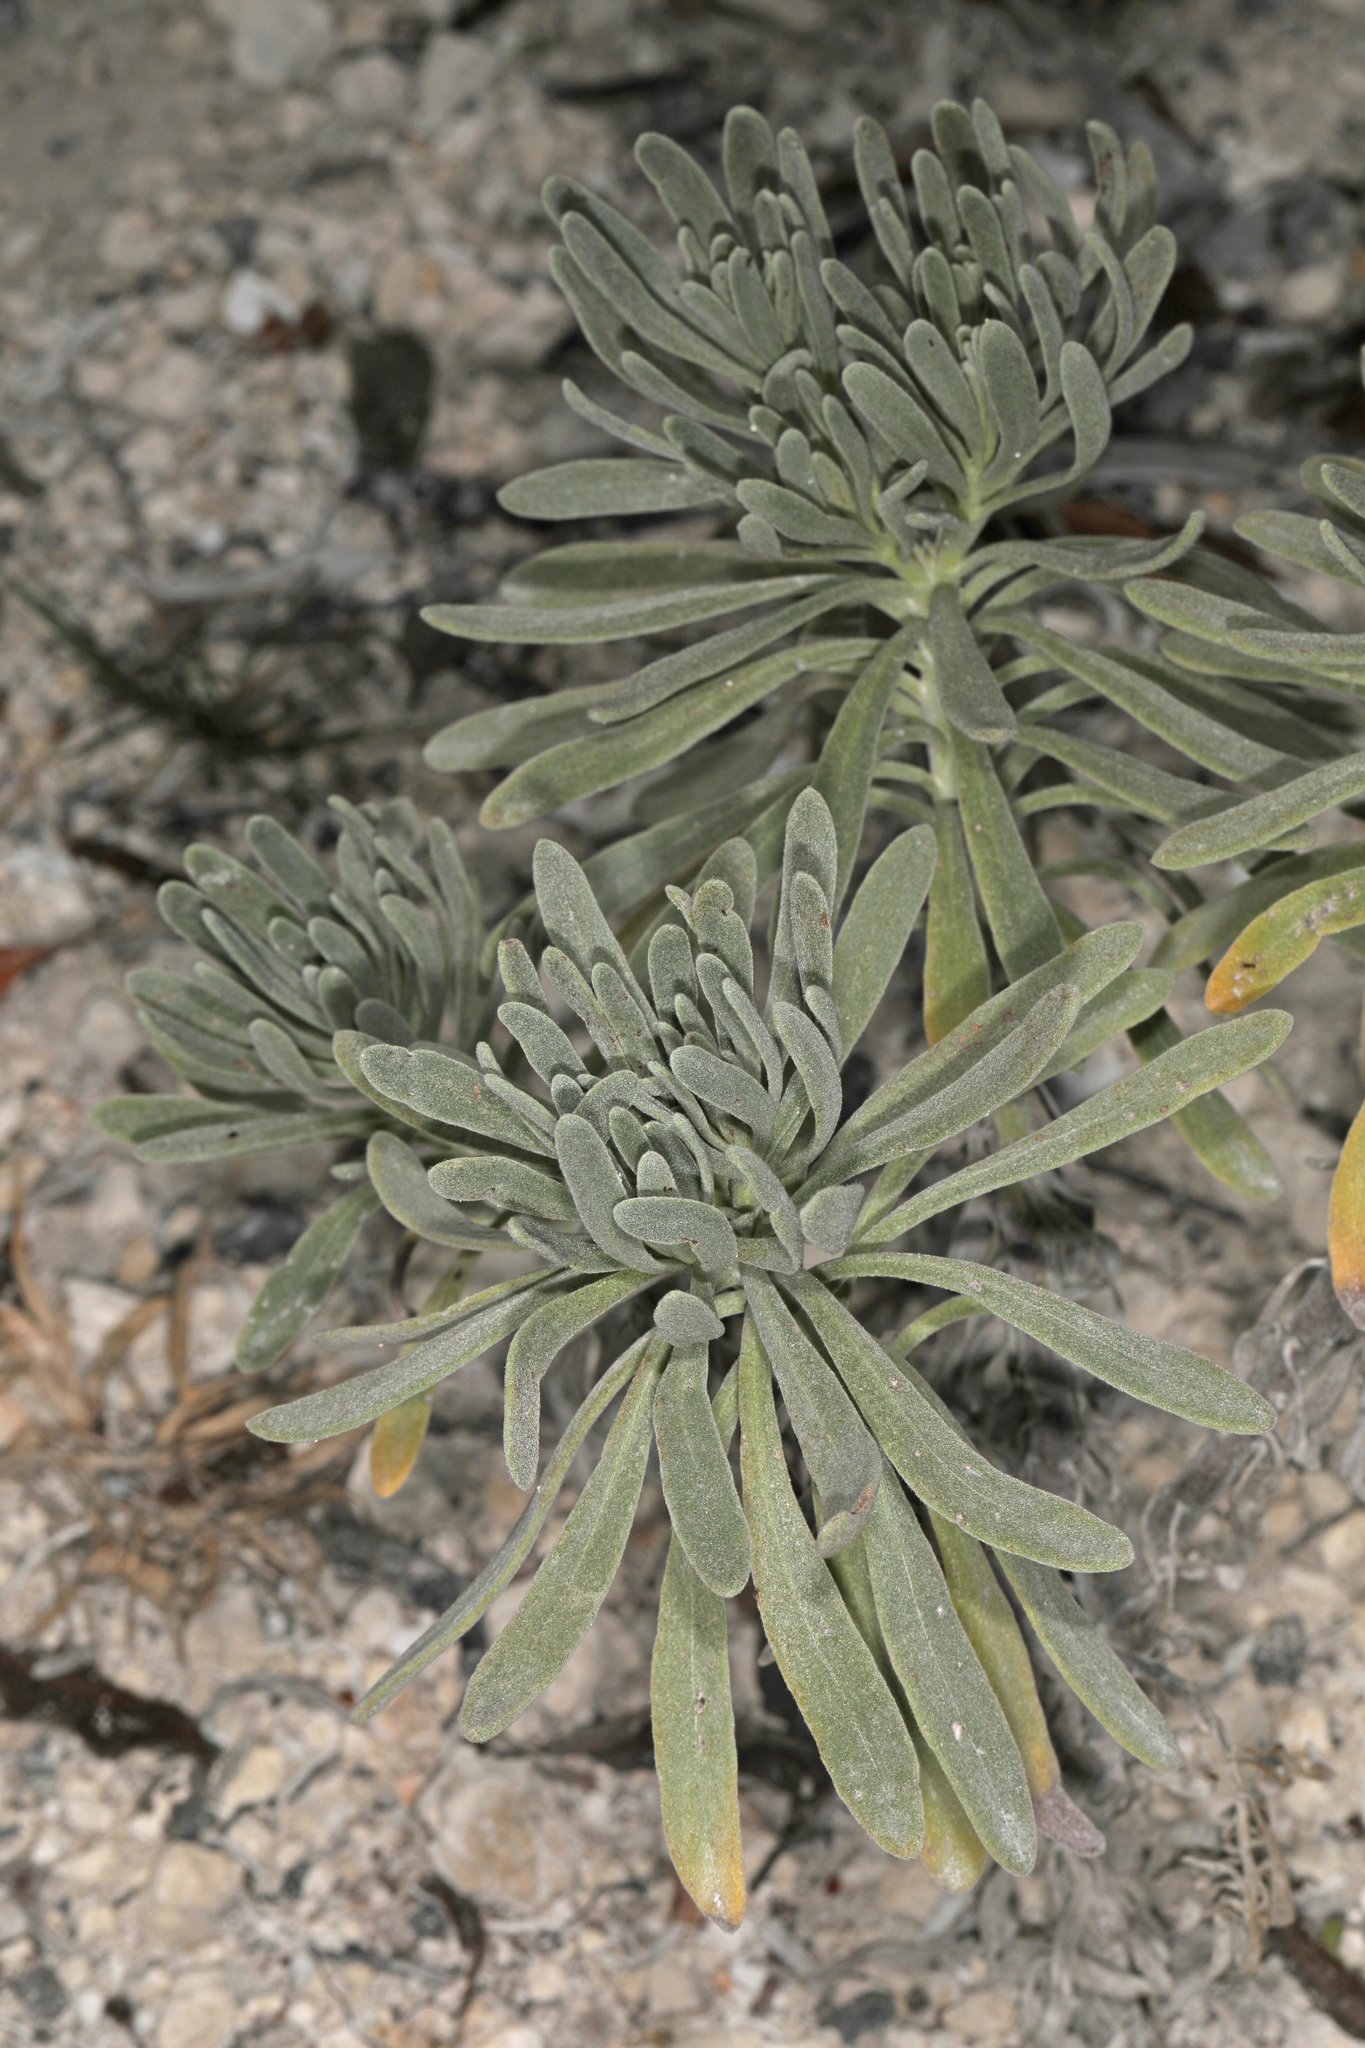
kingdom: Plantae
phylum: Tracheophyta
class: Magnoliopsida
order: Boraginales
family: Heliotropiaceae
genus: Tournefortia
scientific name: Tournefortia gnaphalodes
